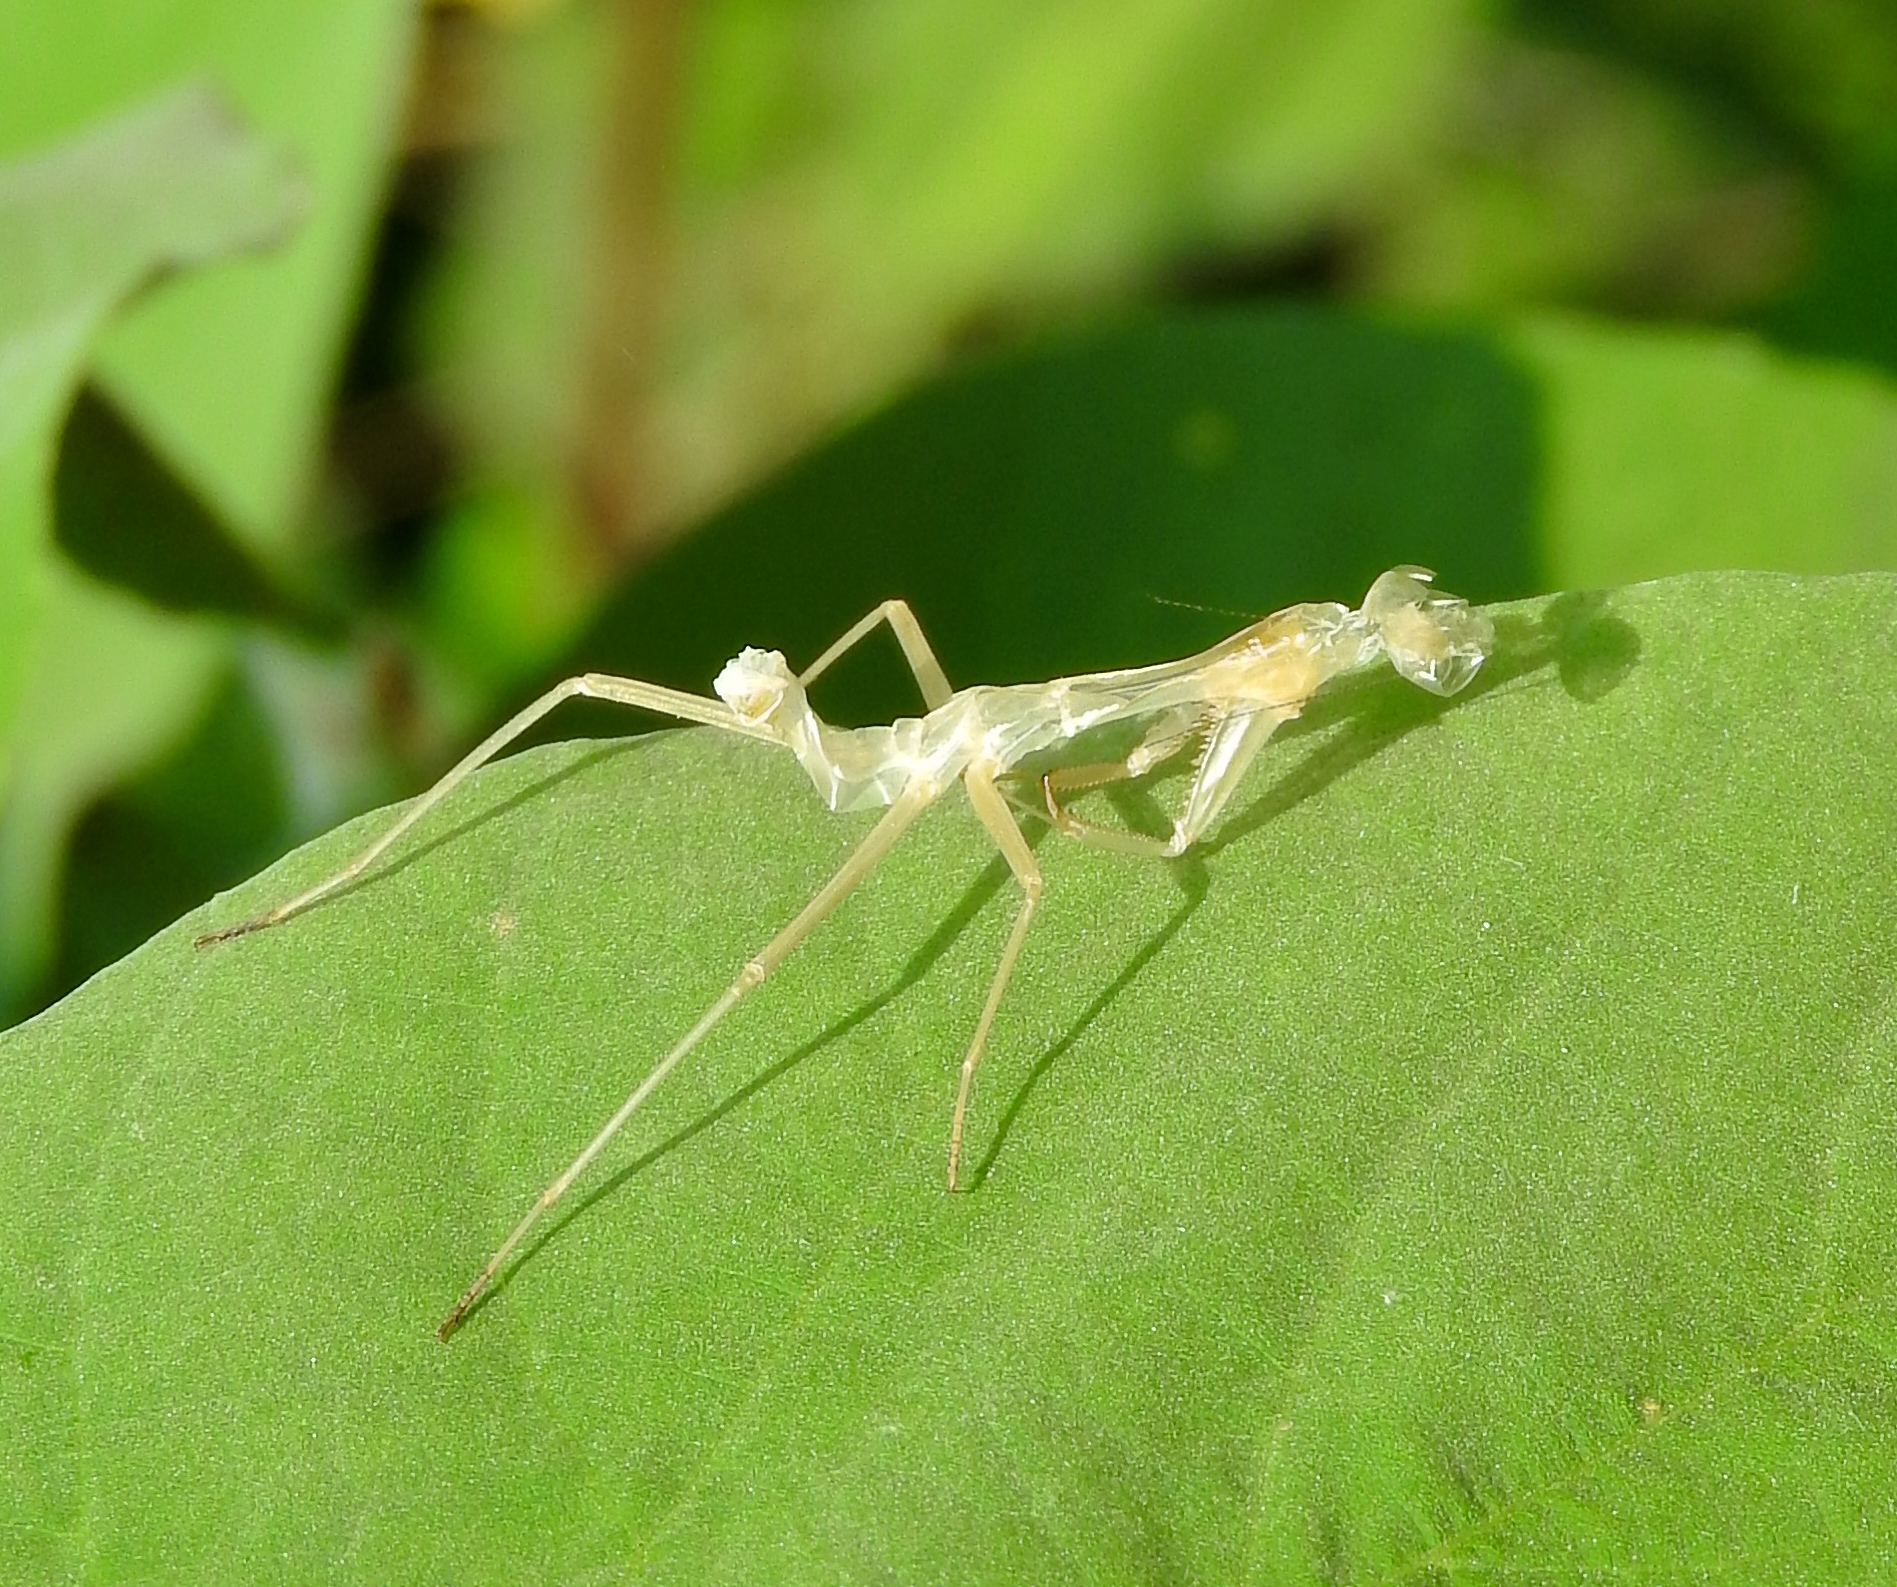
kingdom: Animalia
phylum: Arthropoda
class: Insecta
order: Mantodea
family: Mantidae
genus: Stagmomantis
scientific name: Stagmomantis
